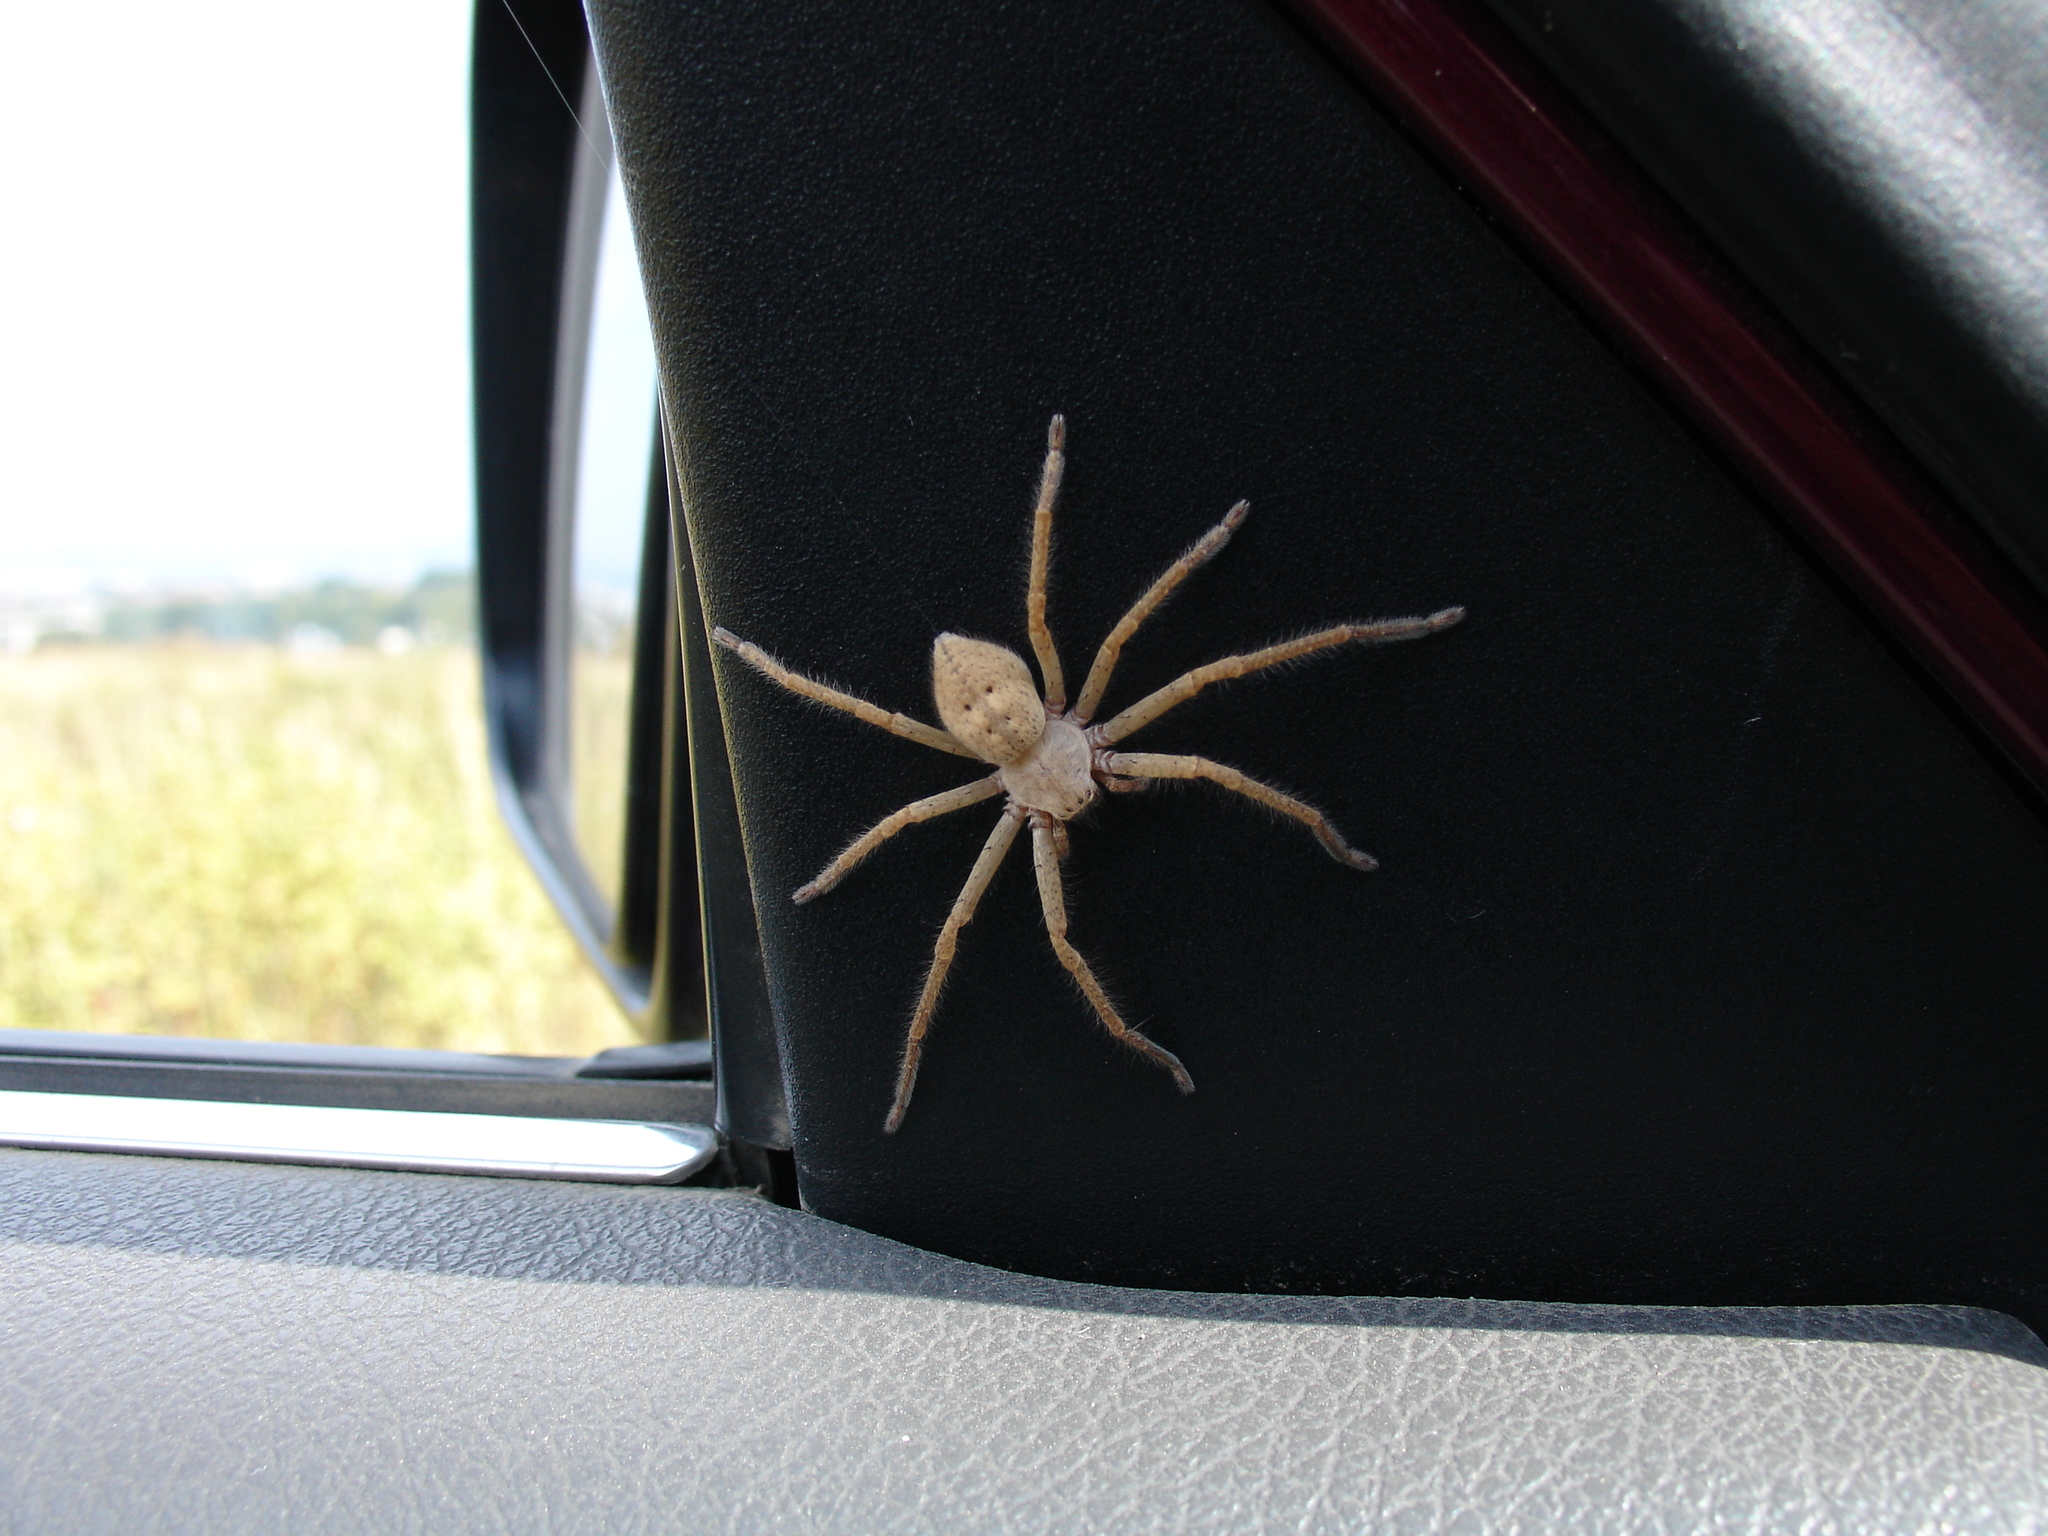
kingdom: Animalia
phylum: Arthropoda
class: Arachnida
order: Araneae
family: Sparassidae
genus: Olios
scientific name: Olios sericeus
